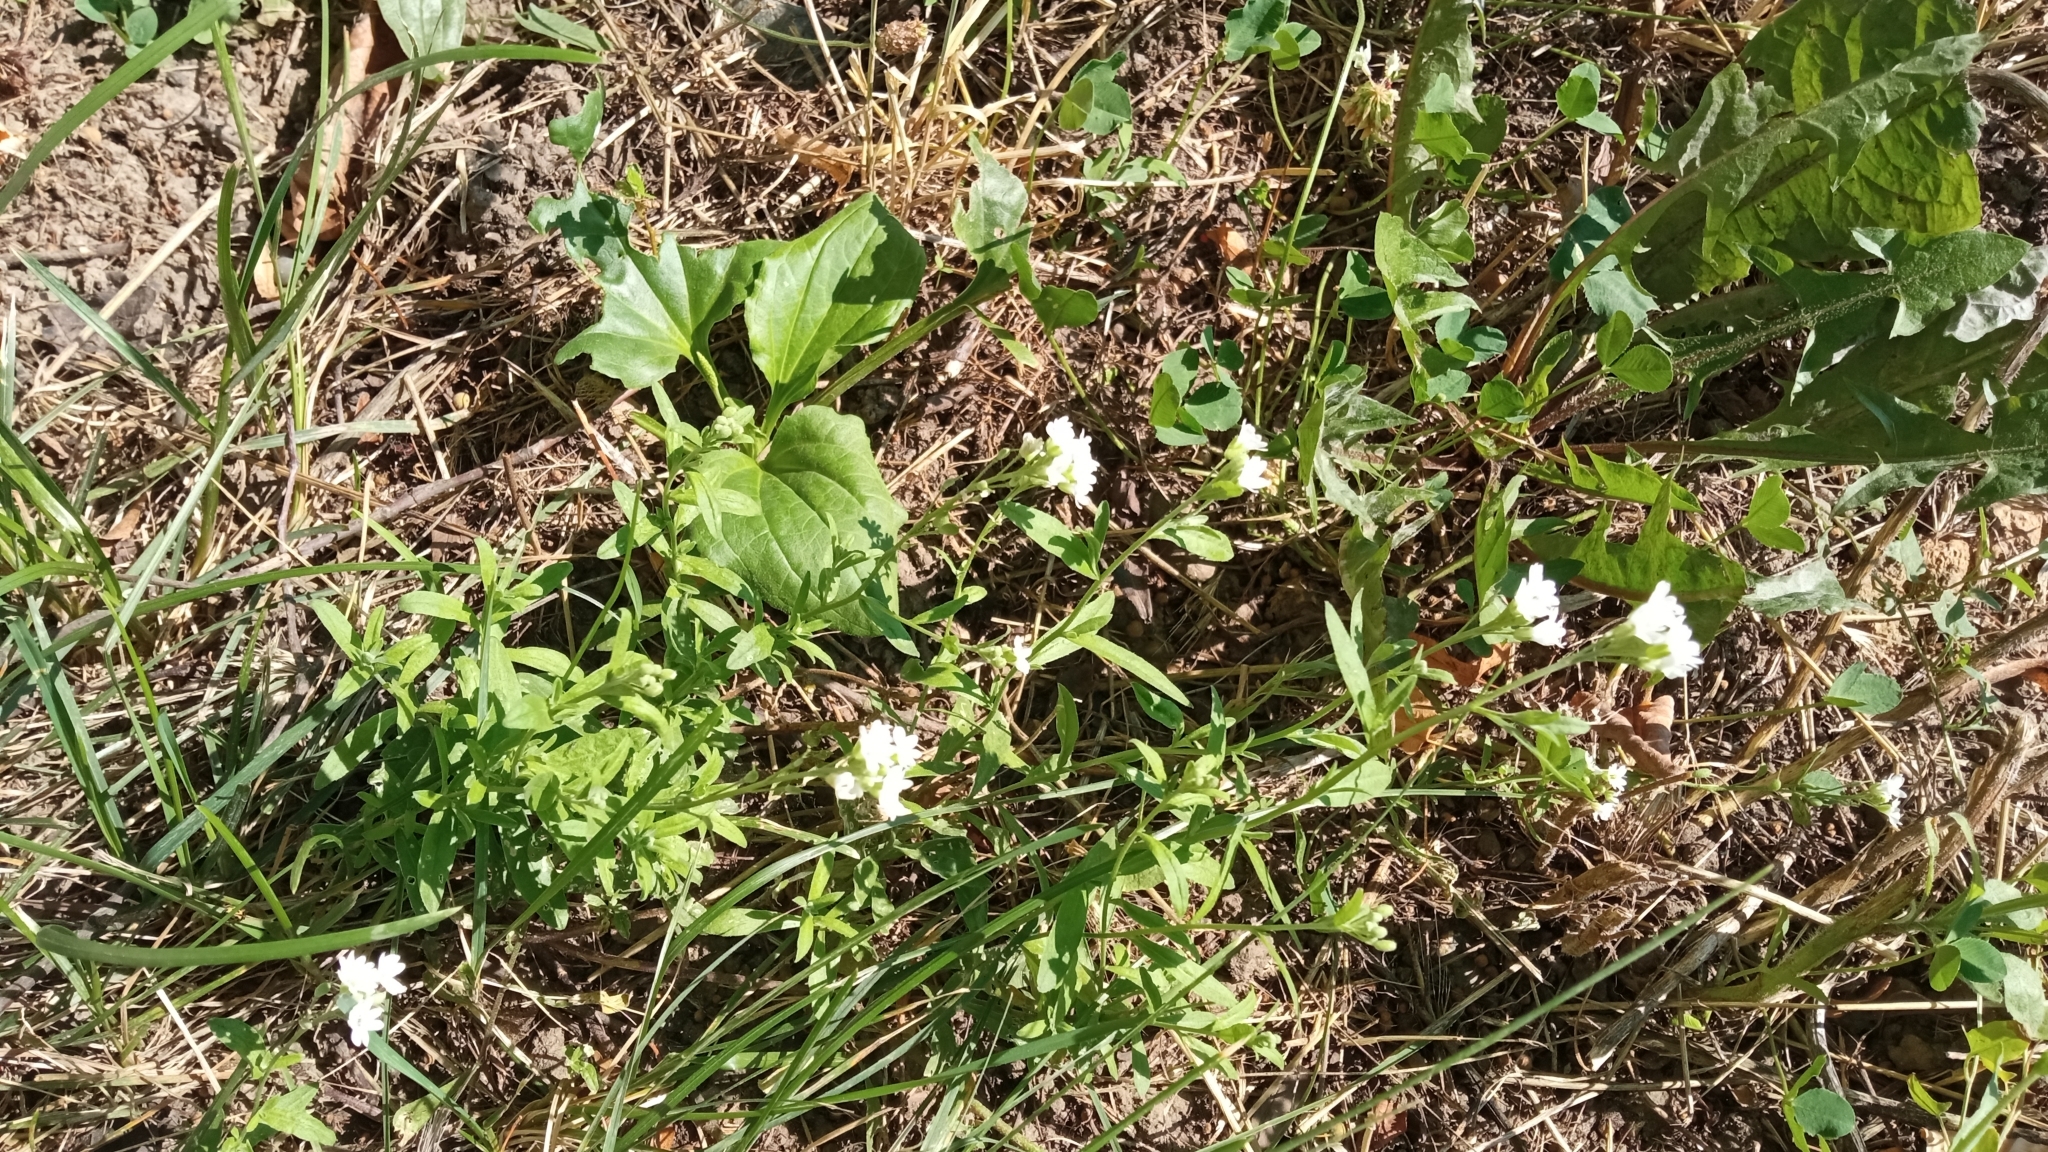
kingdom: Plantae
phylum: Tracheophyta
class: Magnoliopsida
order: Brassicales
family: Brassicaceae
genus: Berteroa
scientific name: Berteroa incana
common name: Hoary alison
